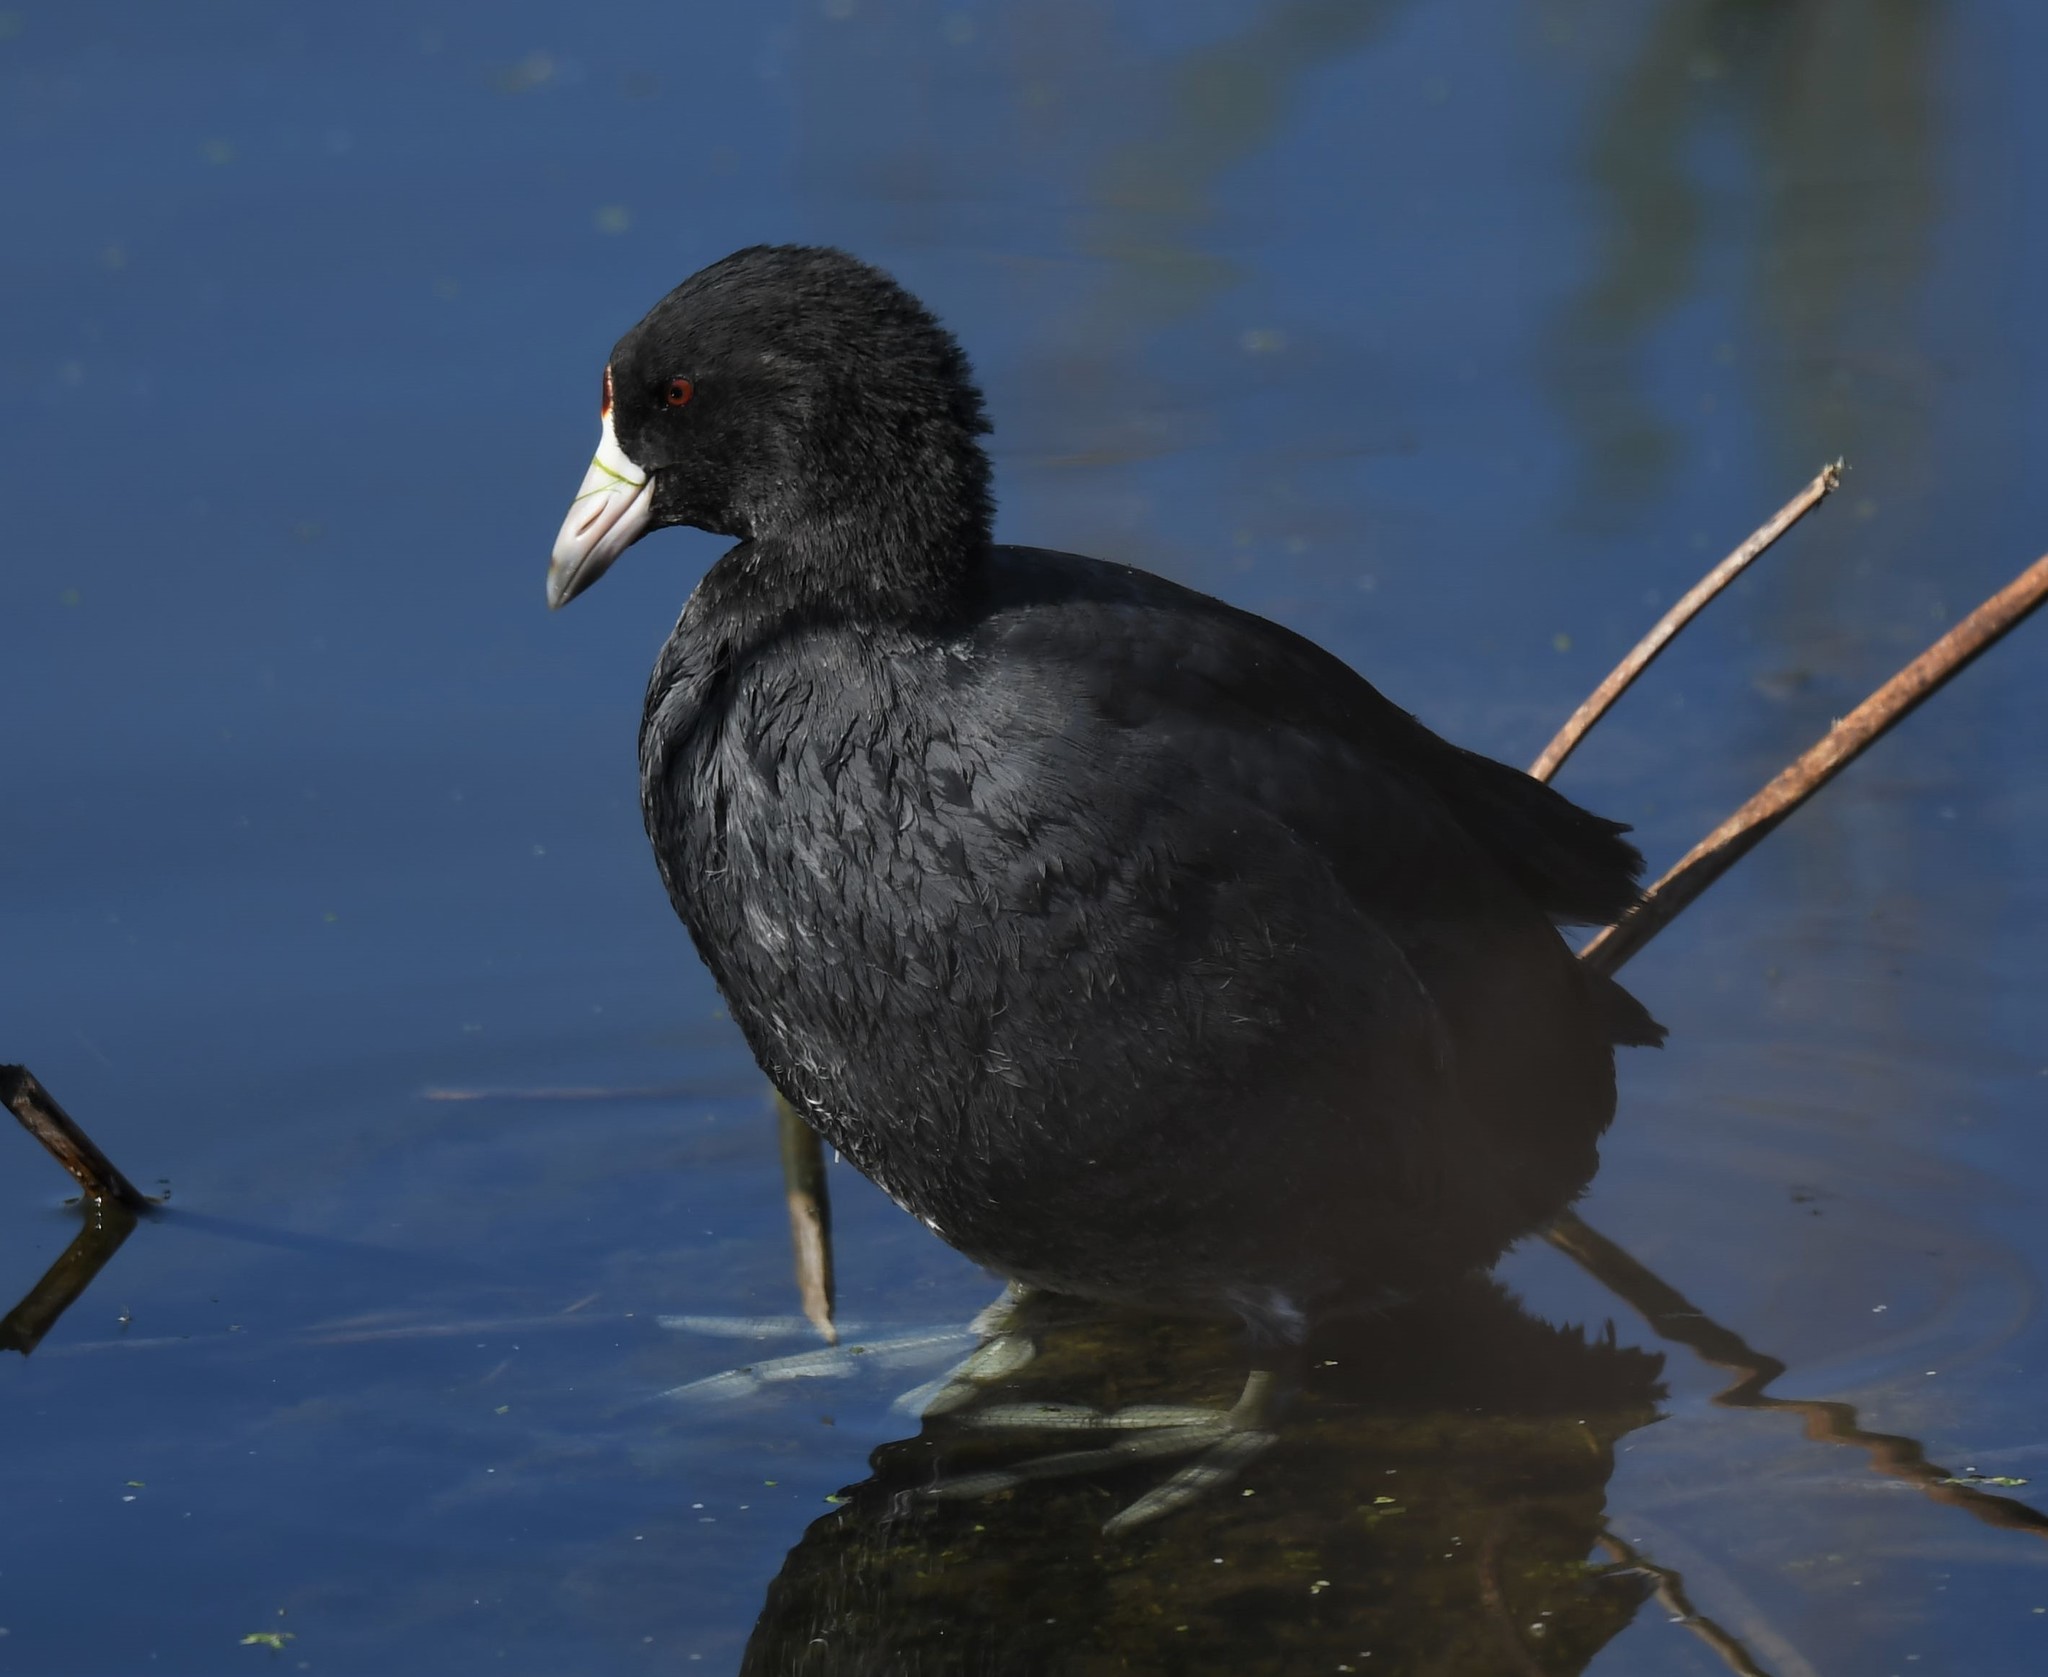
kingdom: Animalia
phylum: Chordata
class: Aves
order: Gruiformes
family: Rallidae
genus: Fulica
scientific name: Fulica americana
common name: American coot
